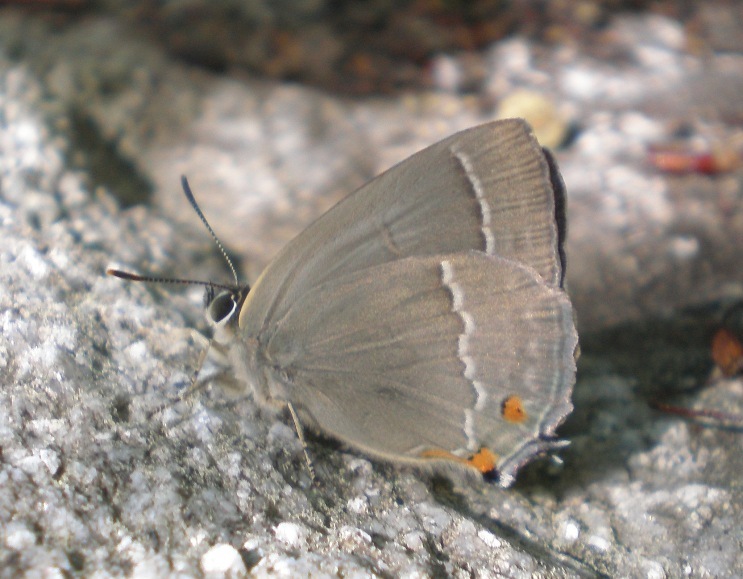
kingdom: Animalia
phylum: Arthropoda
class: Insecta
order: Lepidoptera
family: Lycaenidae
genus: Quercusia
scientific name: Quercusia quercus
